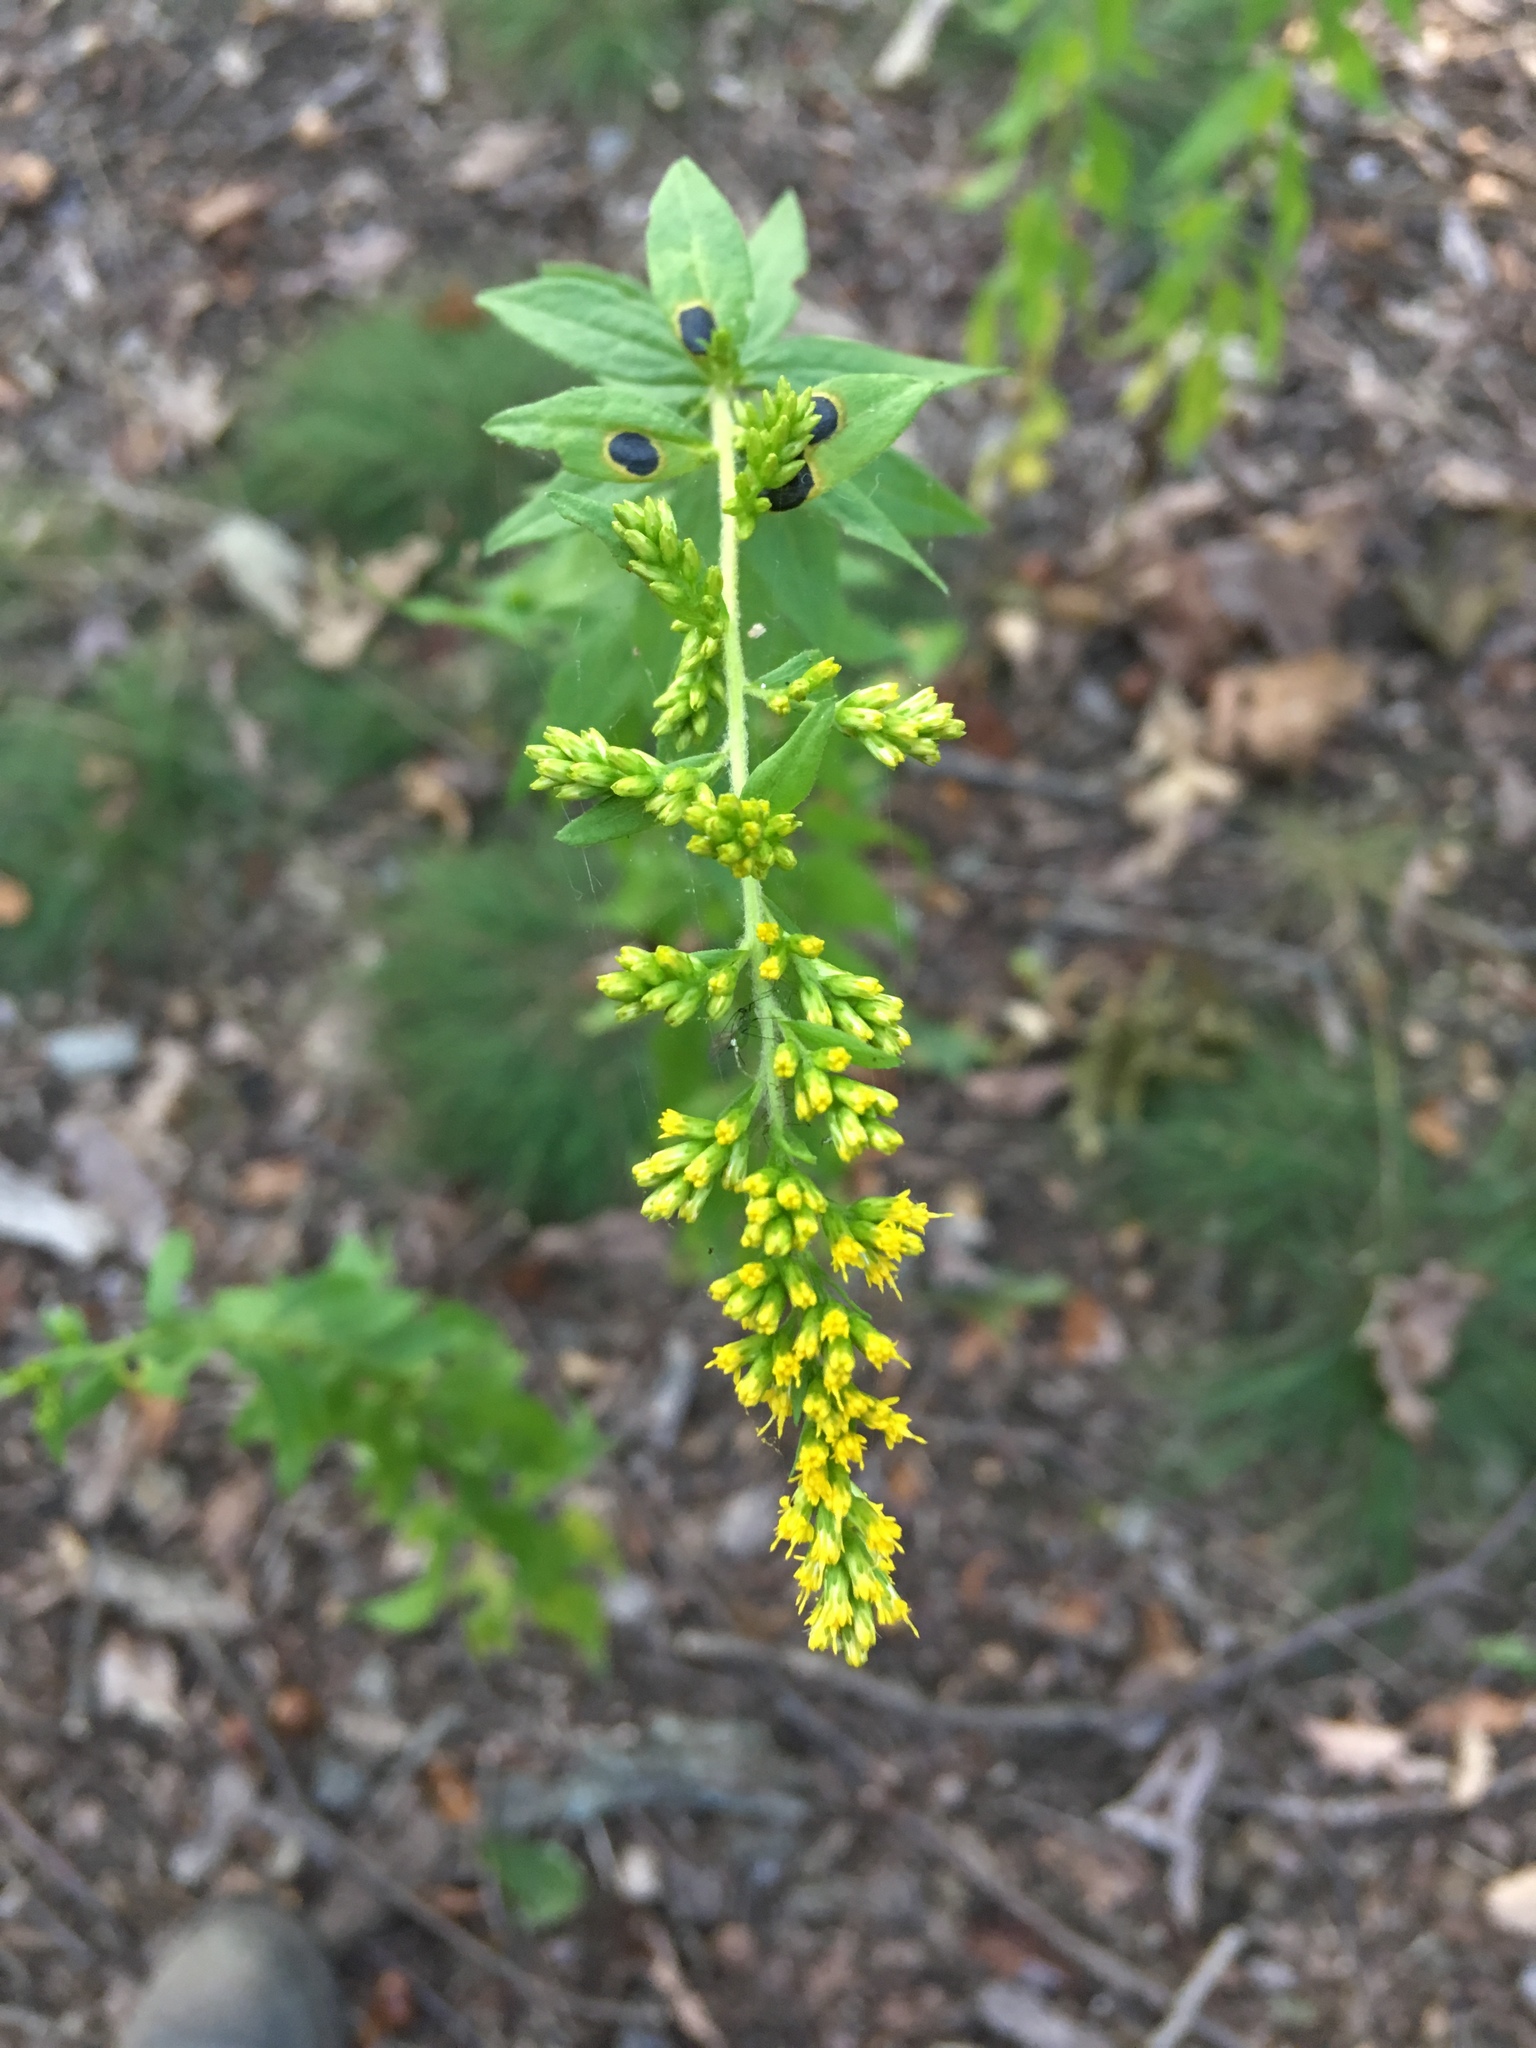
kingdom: Plantae
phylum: Tracheophyta
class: Magnoliopsida
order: Asterales
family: Asteraceae
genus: Solidago
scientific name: Solidago rugosa
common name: Rough-stemmed goldenrod
